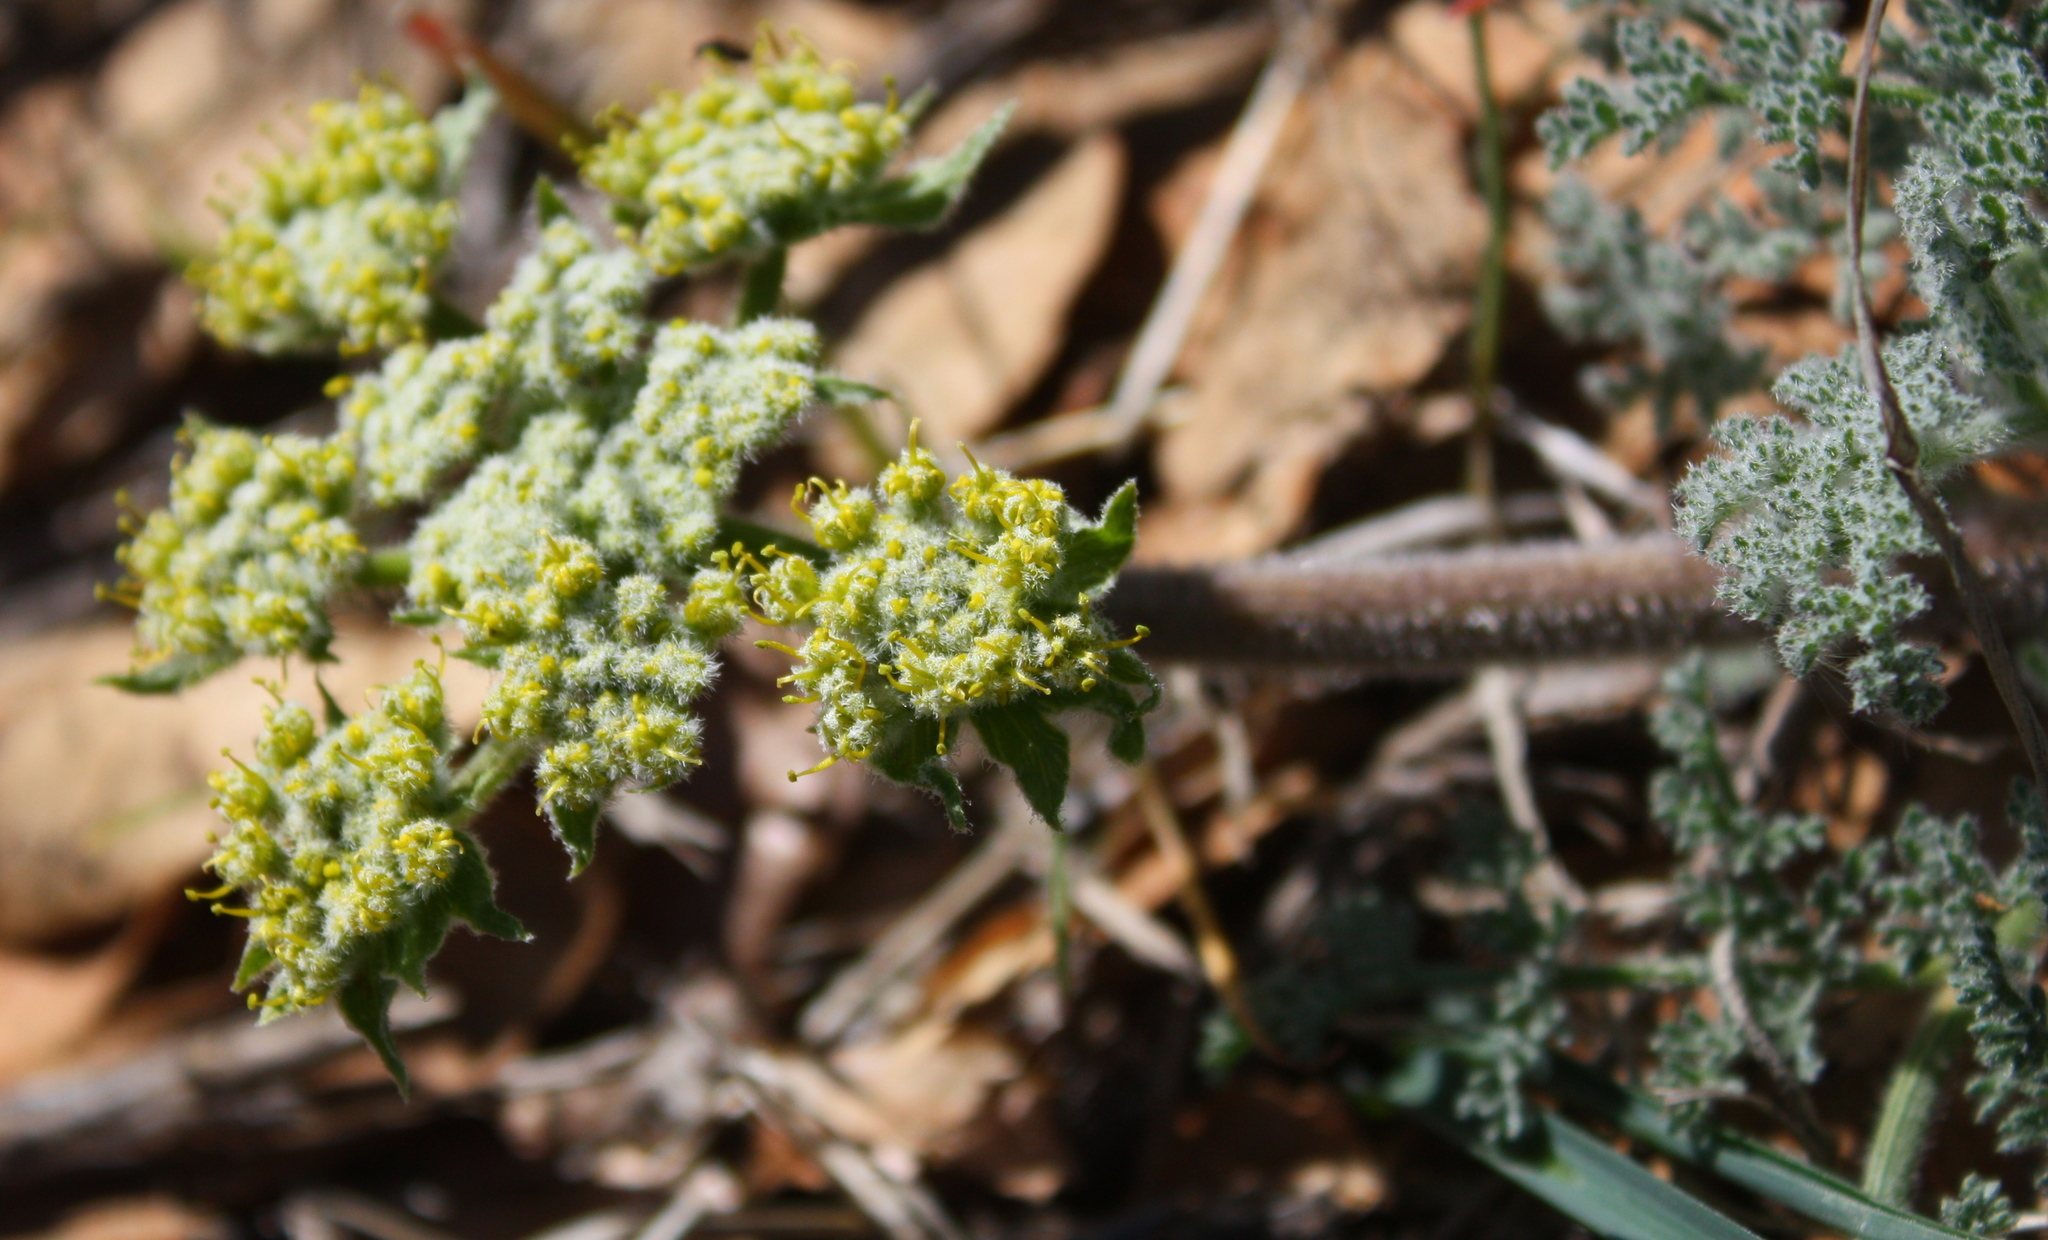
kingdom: Plantae
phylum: Tracheophyta
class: Magnoliopsida
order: Apiales
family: Apiaceae
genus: Lomatium
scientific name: Lomatium dasycarpum
